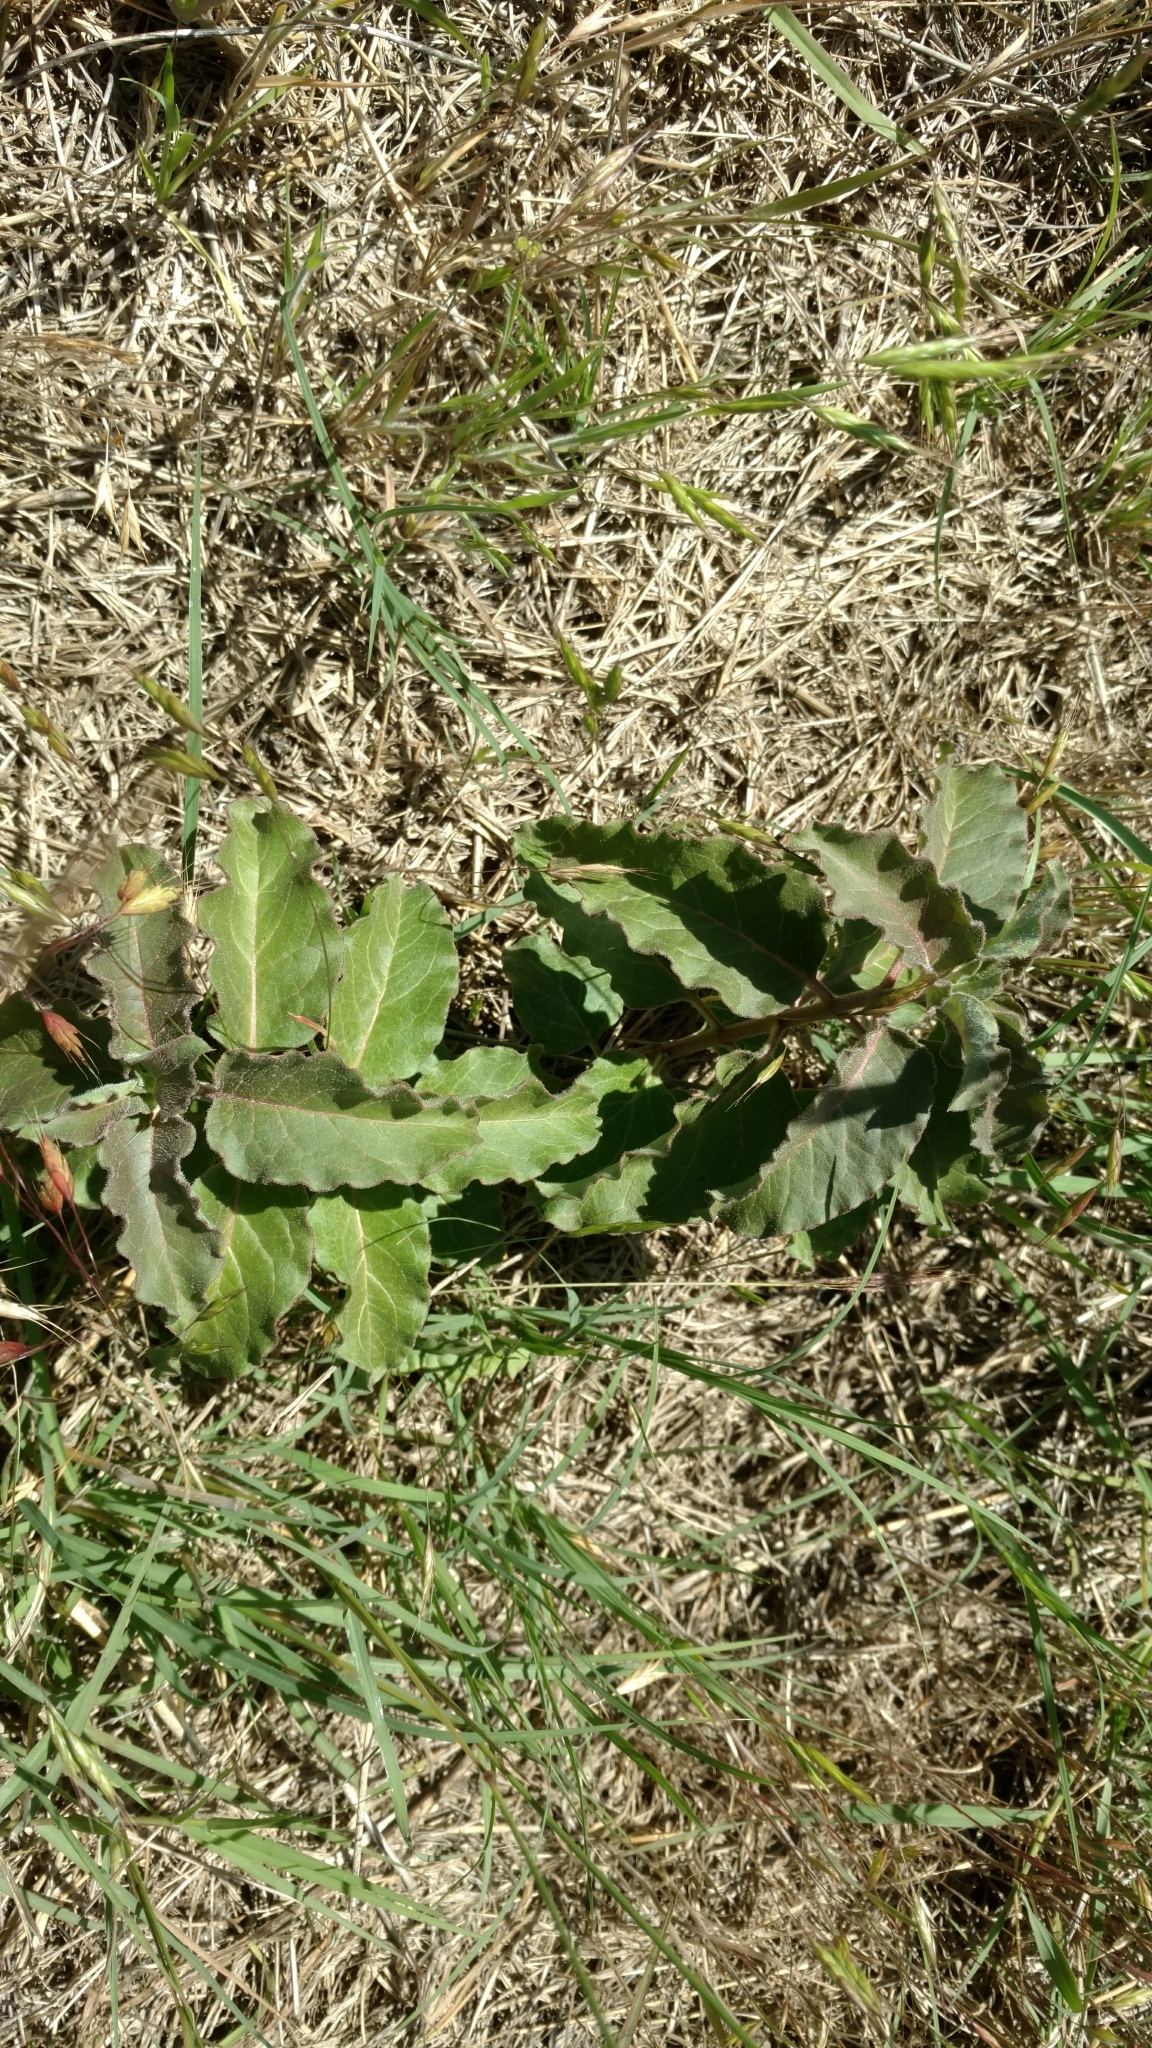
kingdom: Plantae
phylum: Tracheophyta
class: Magnoliopsida
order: Gentianales
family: Apocynaceae
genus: Asclepias
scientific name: Asclepias oenotheroides
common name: Zizotes milkweed
